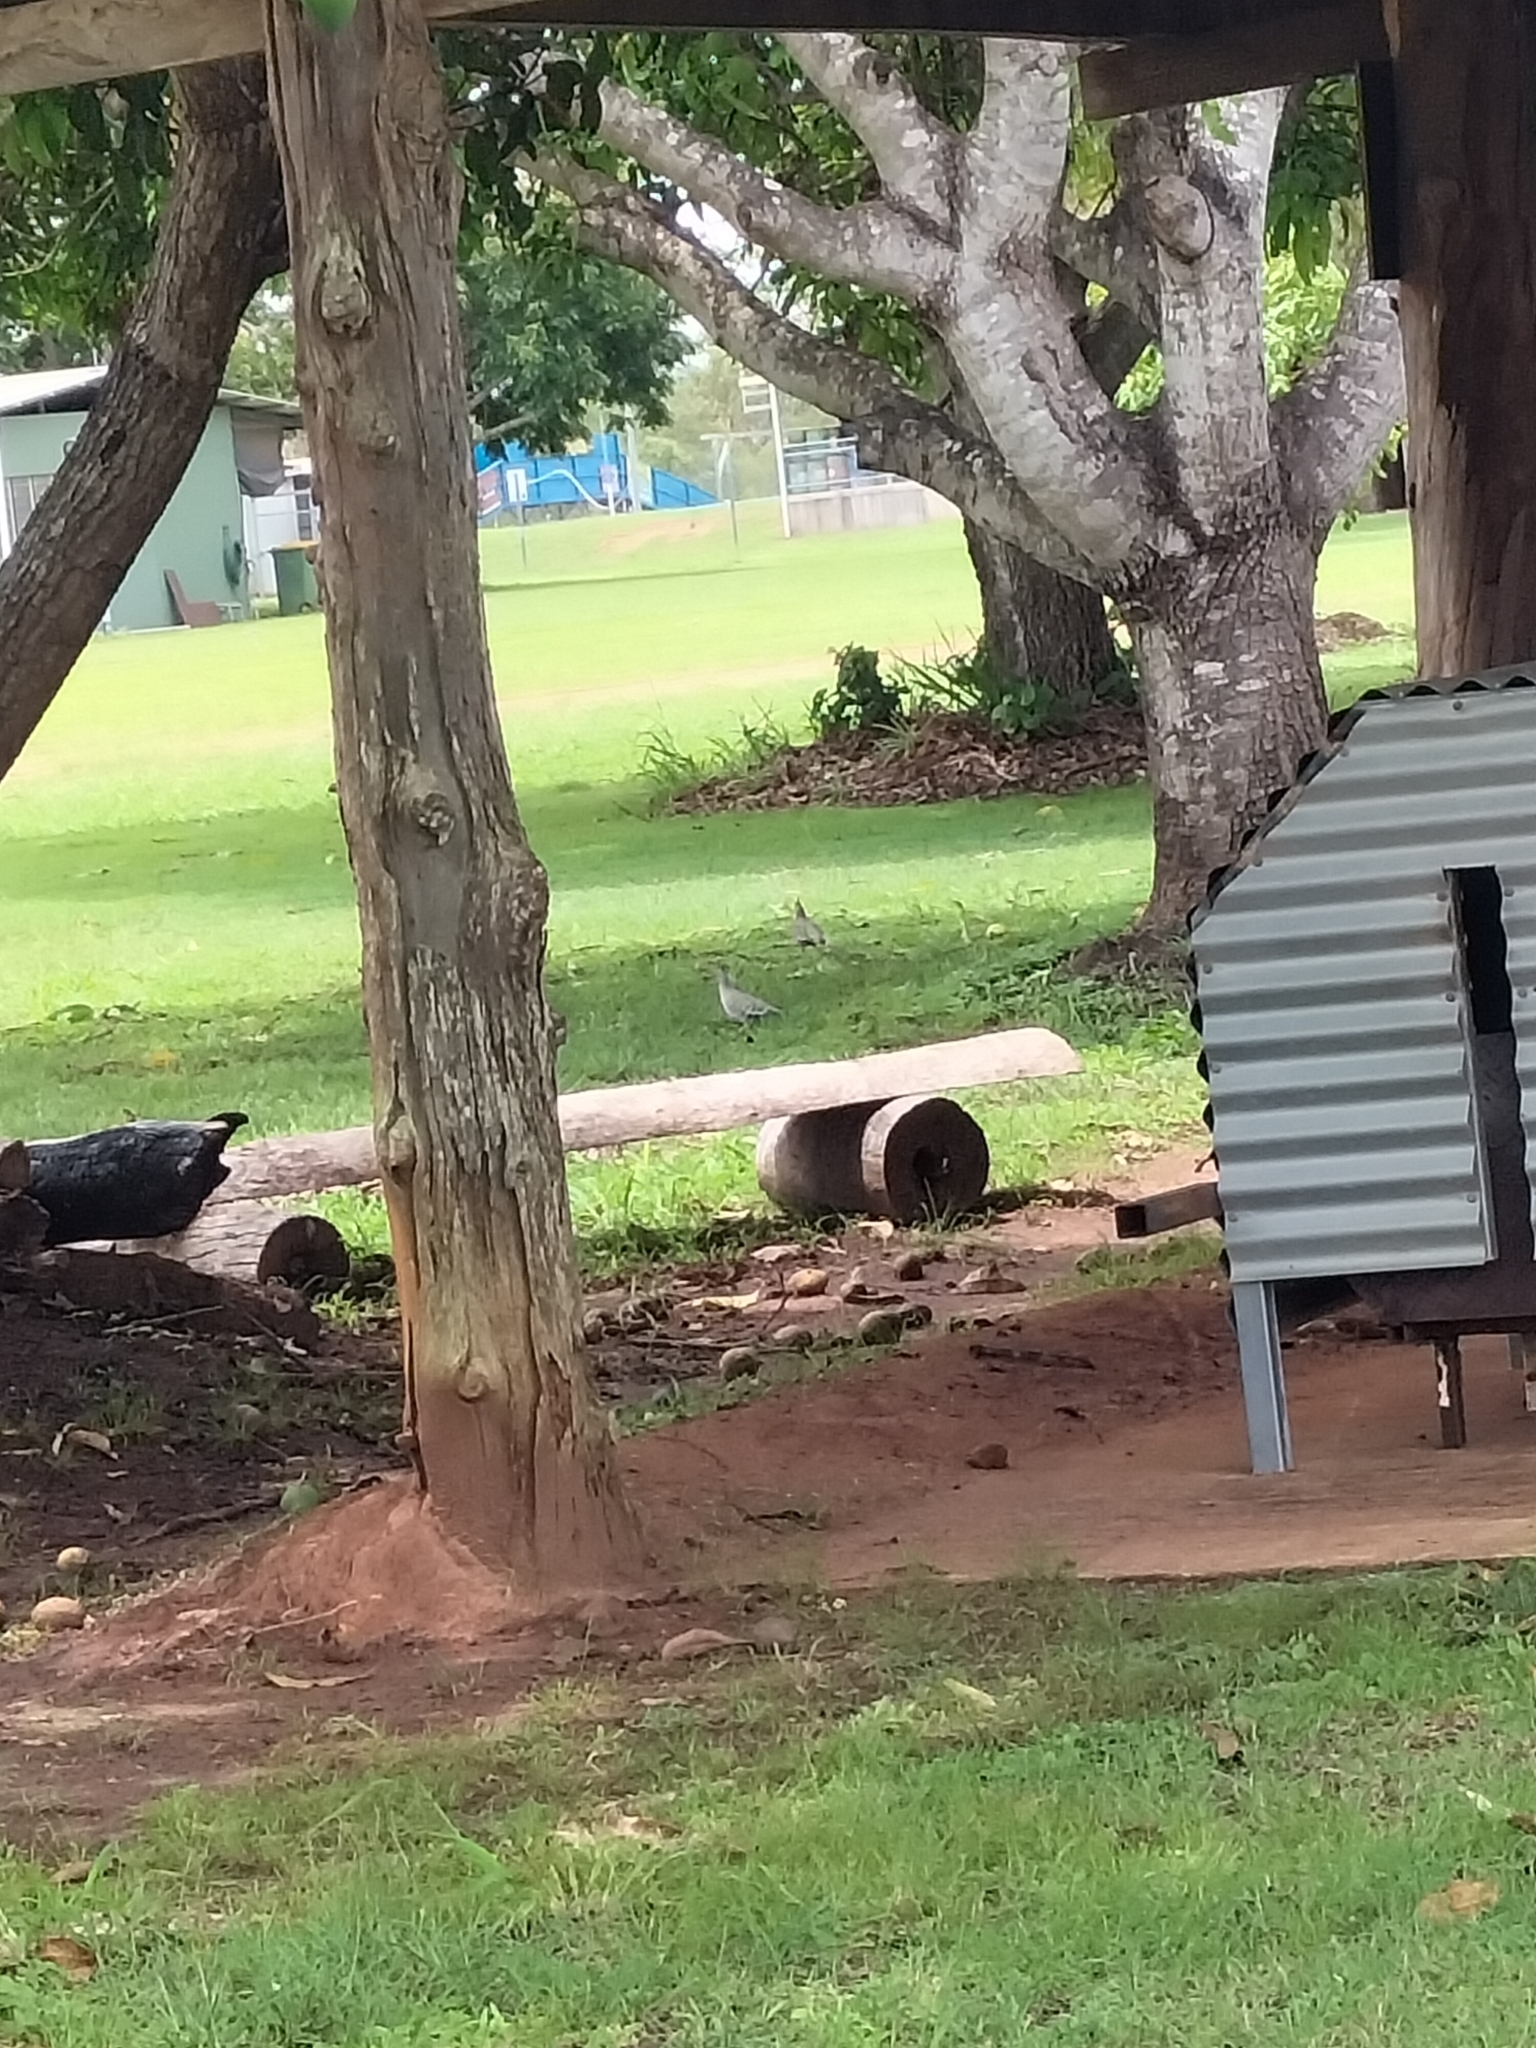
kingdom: Animalia
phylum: Chordata
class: Aves
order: Columbiformes
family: Columbidae
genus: Ocyphaps
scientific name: Ocyphaps lophotes
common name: Crested pigeon
